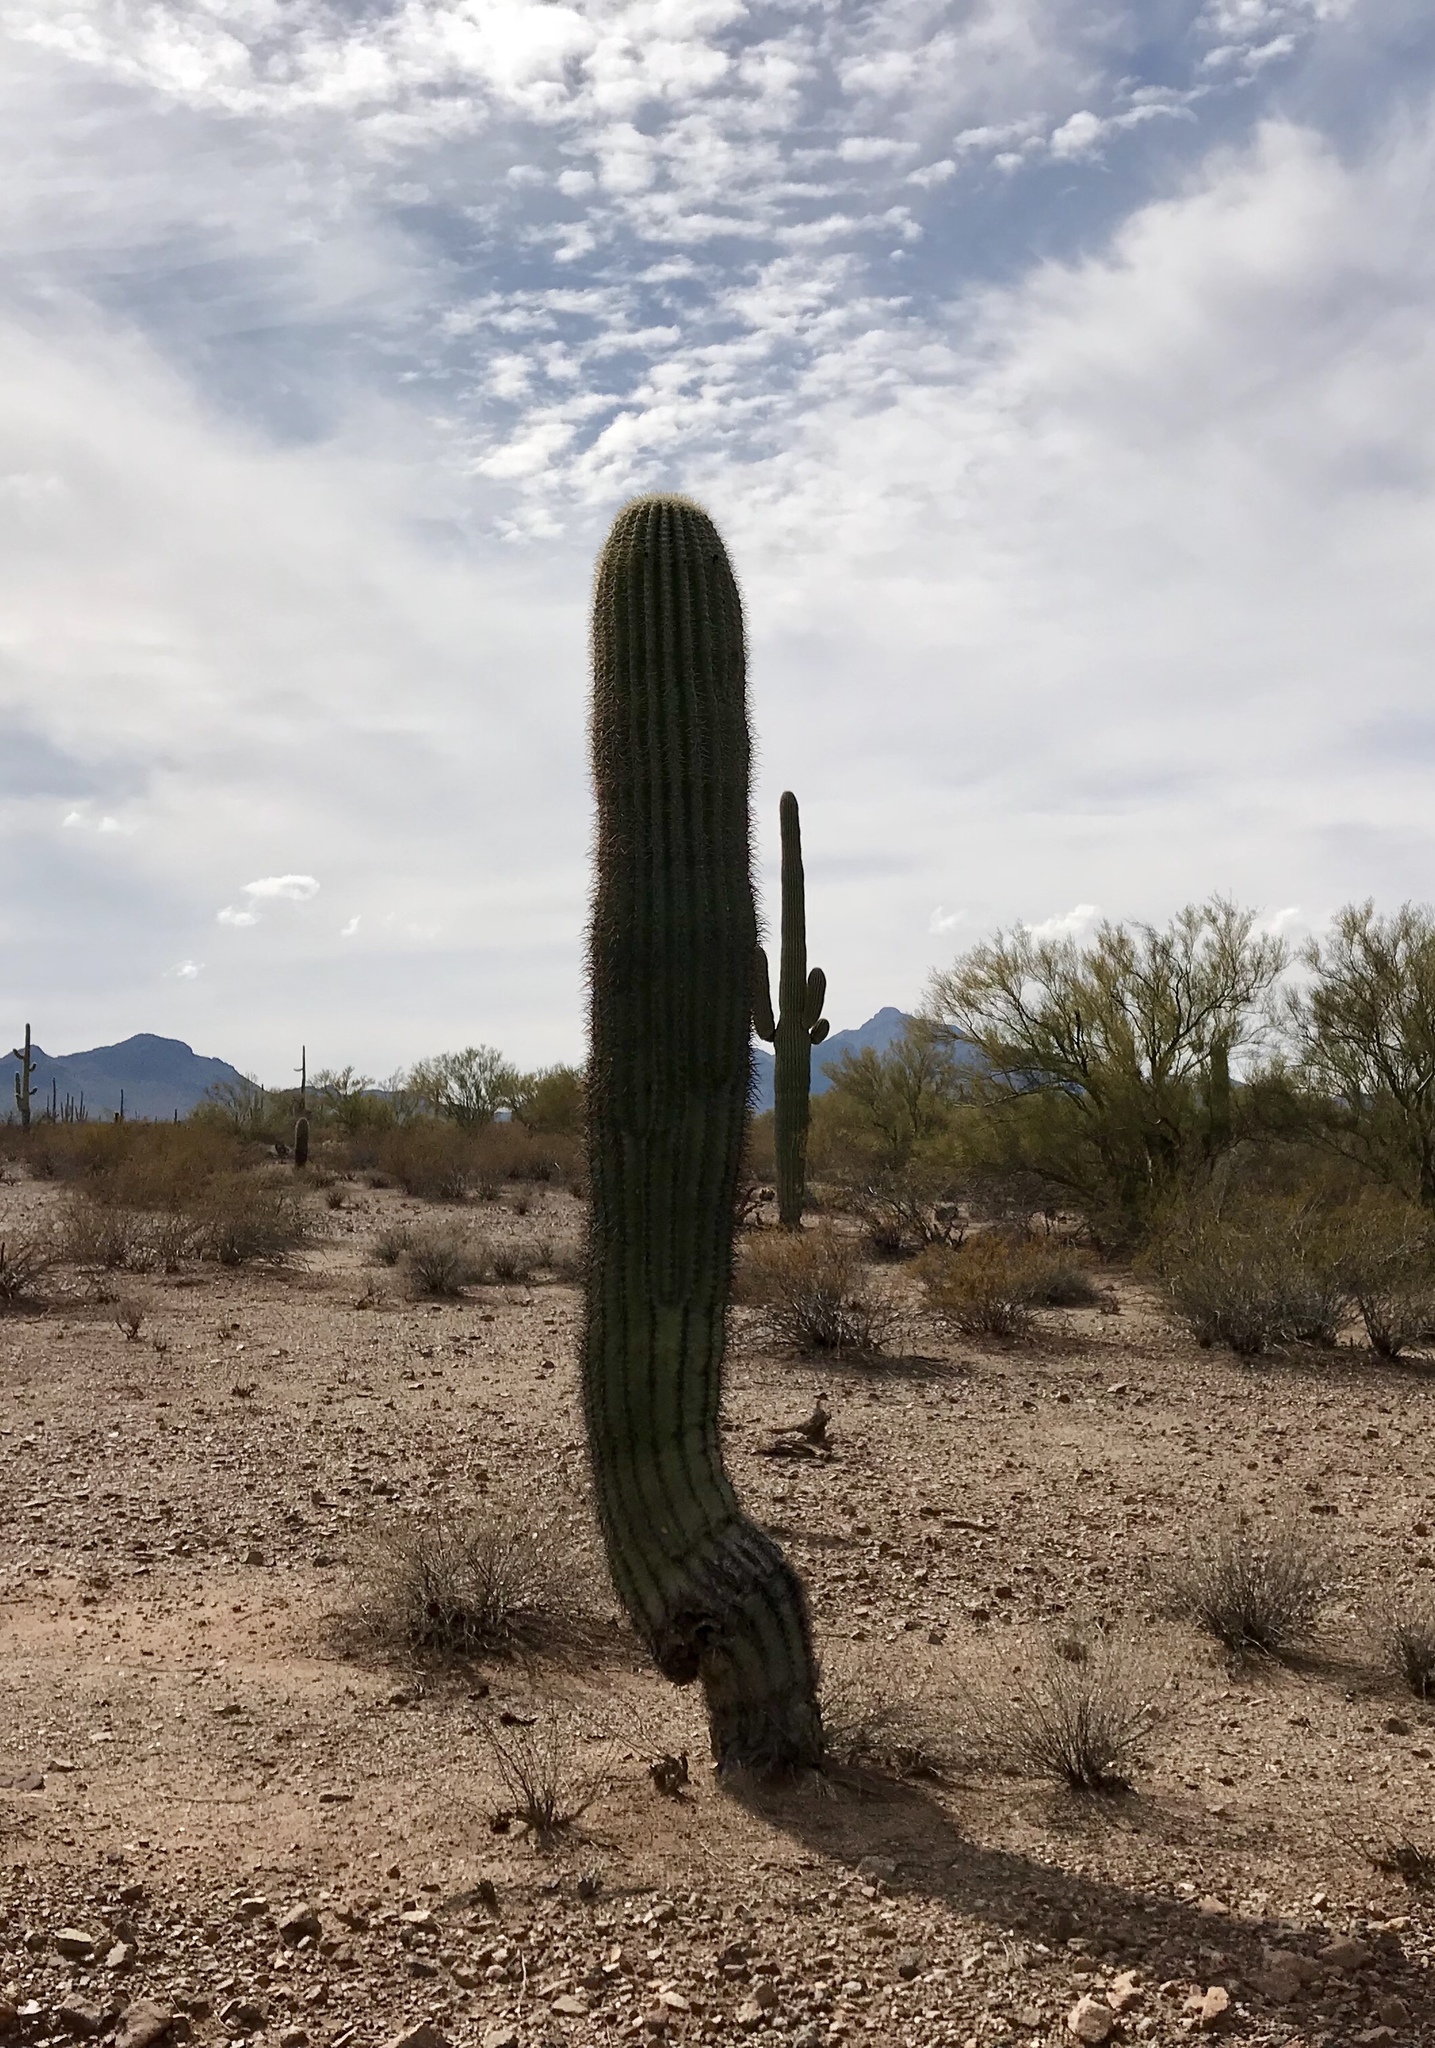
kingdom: Plantae
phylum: Tracheophyta
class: Magnoliopsida
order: Caryophyllales
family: Cactaceae
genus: Carnegiea
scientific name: Carnegiea gigantea
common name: Saguaro
